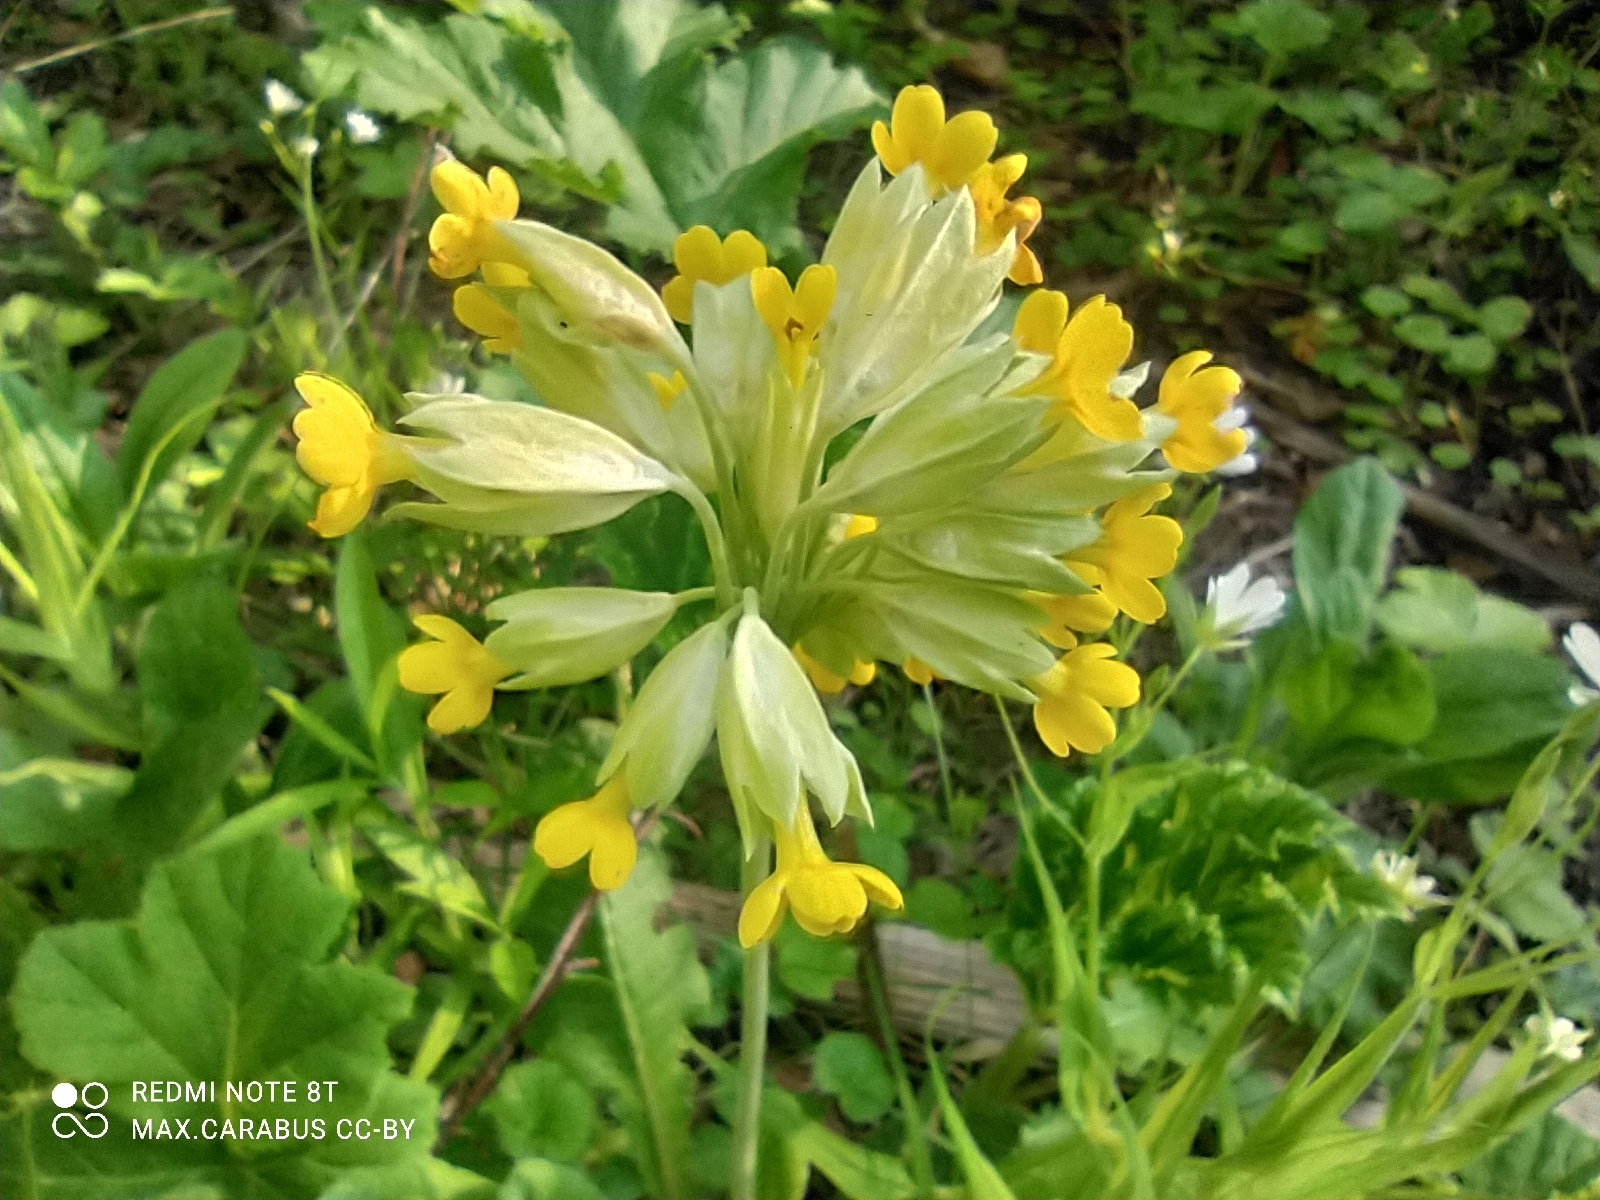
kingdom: Plantae
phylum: Tracheophyta
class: Magnoliopsida
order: Ericales
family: Primulaceae
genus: Primula
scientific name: Primula veris
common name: Cowslip
